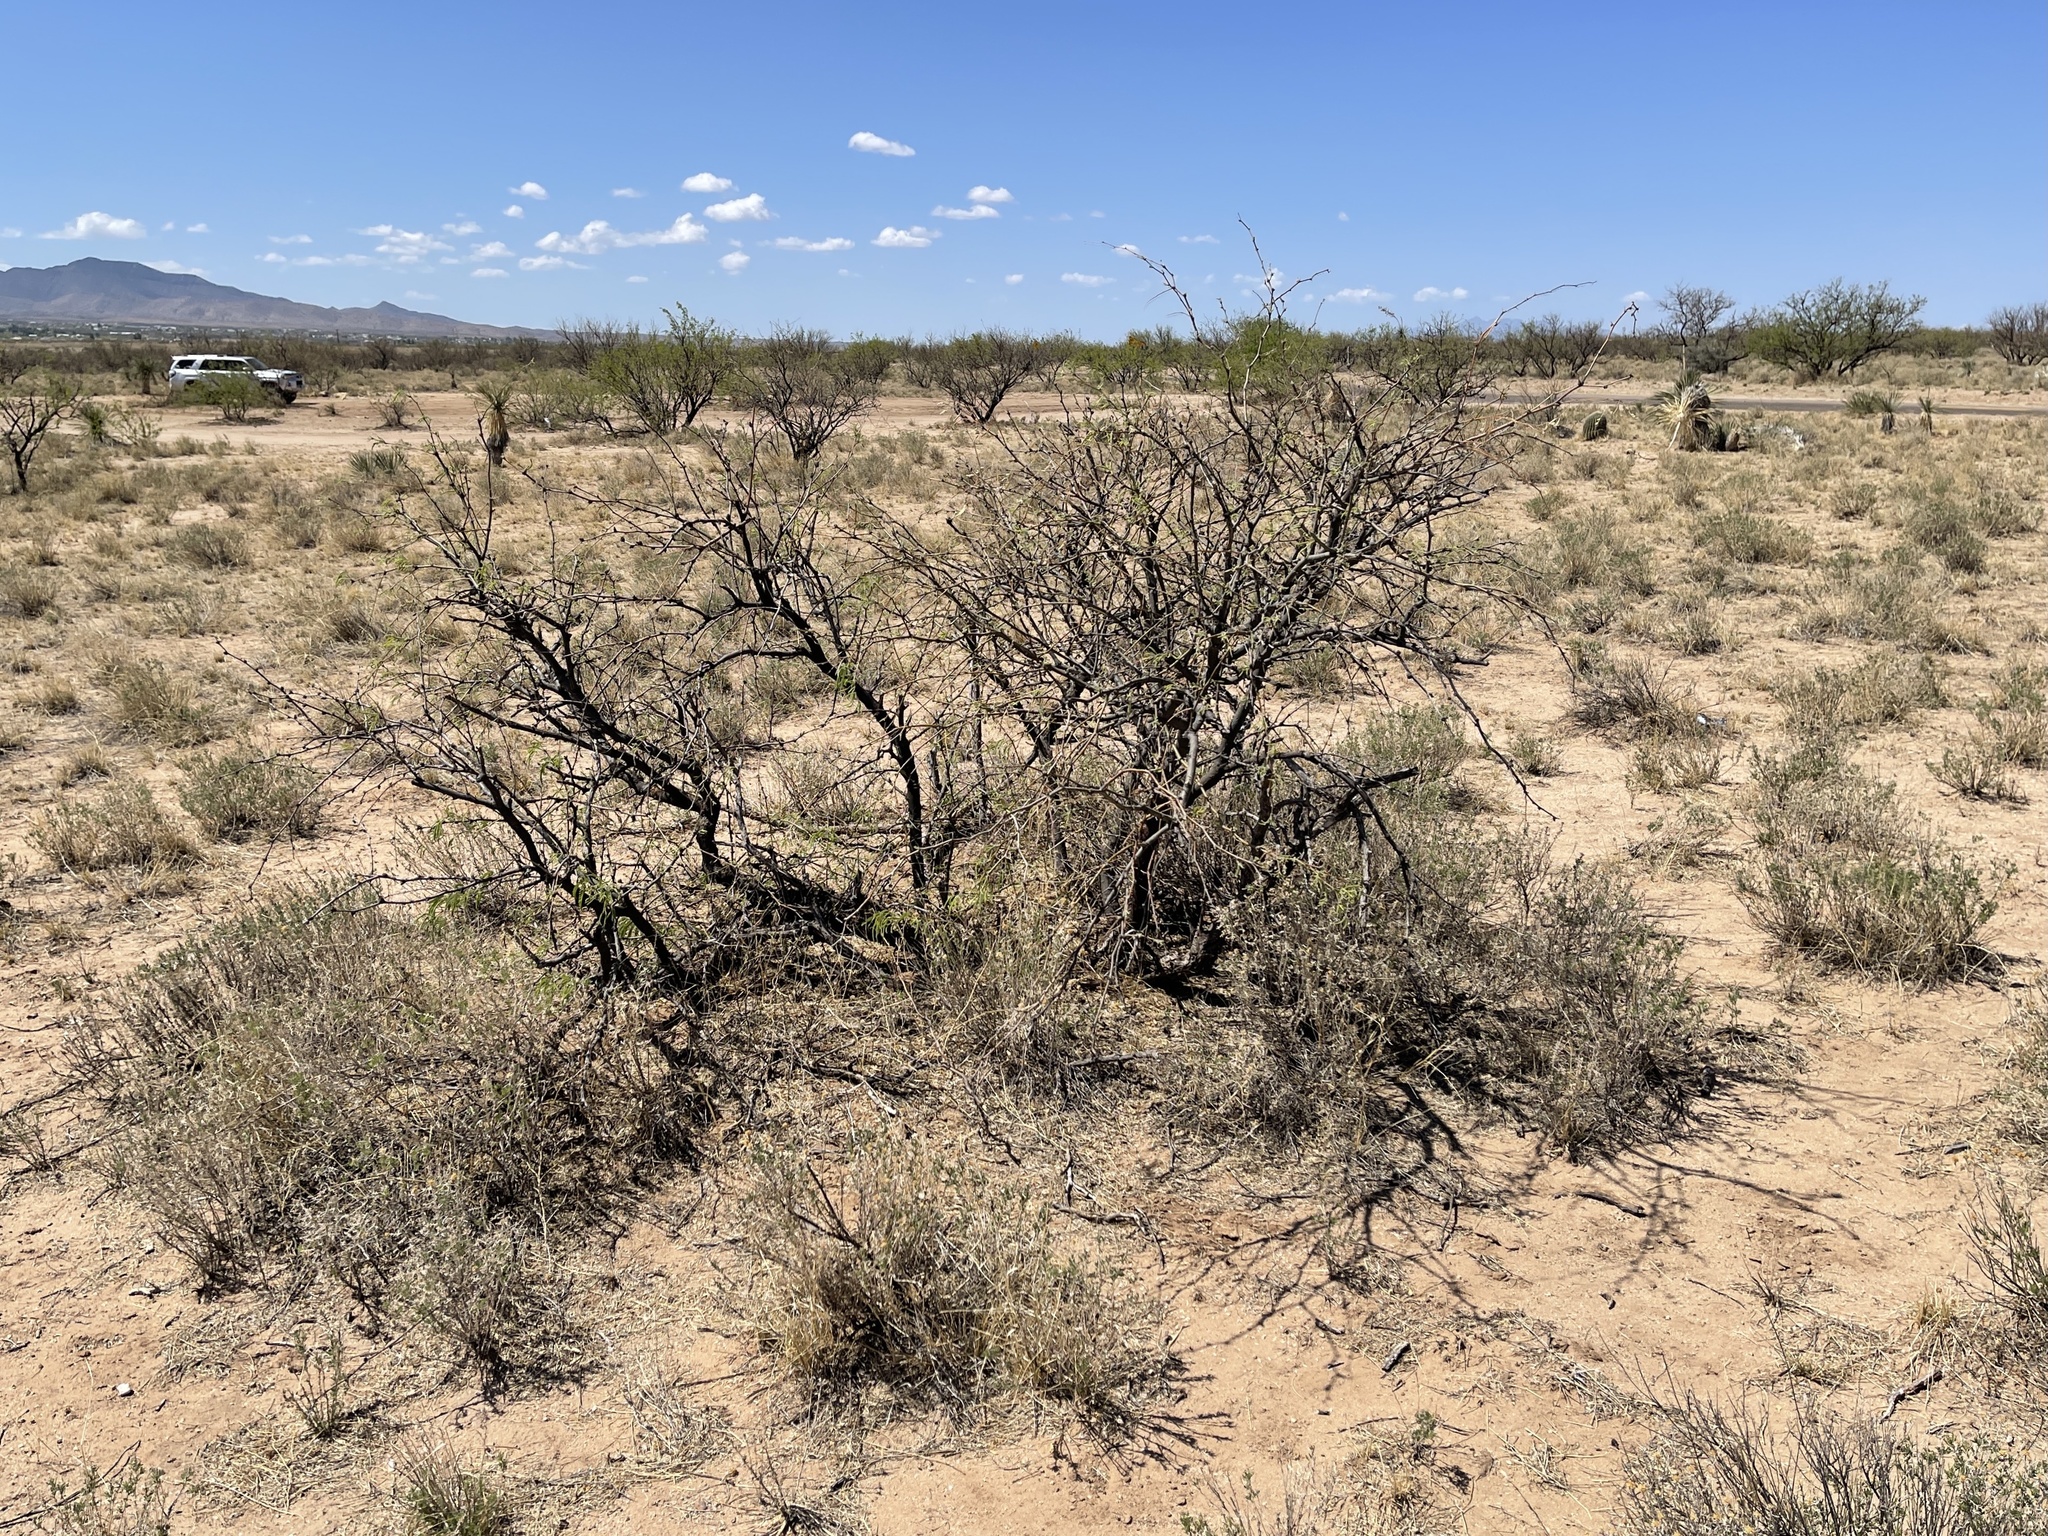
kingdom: Plantae
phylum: Tracheophyta
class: Magnoliopsida
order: Fabales
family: Fabaceae
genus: Prosopis
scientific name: Prosopis glandulosa
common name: Honey mesquite
